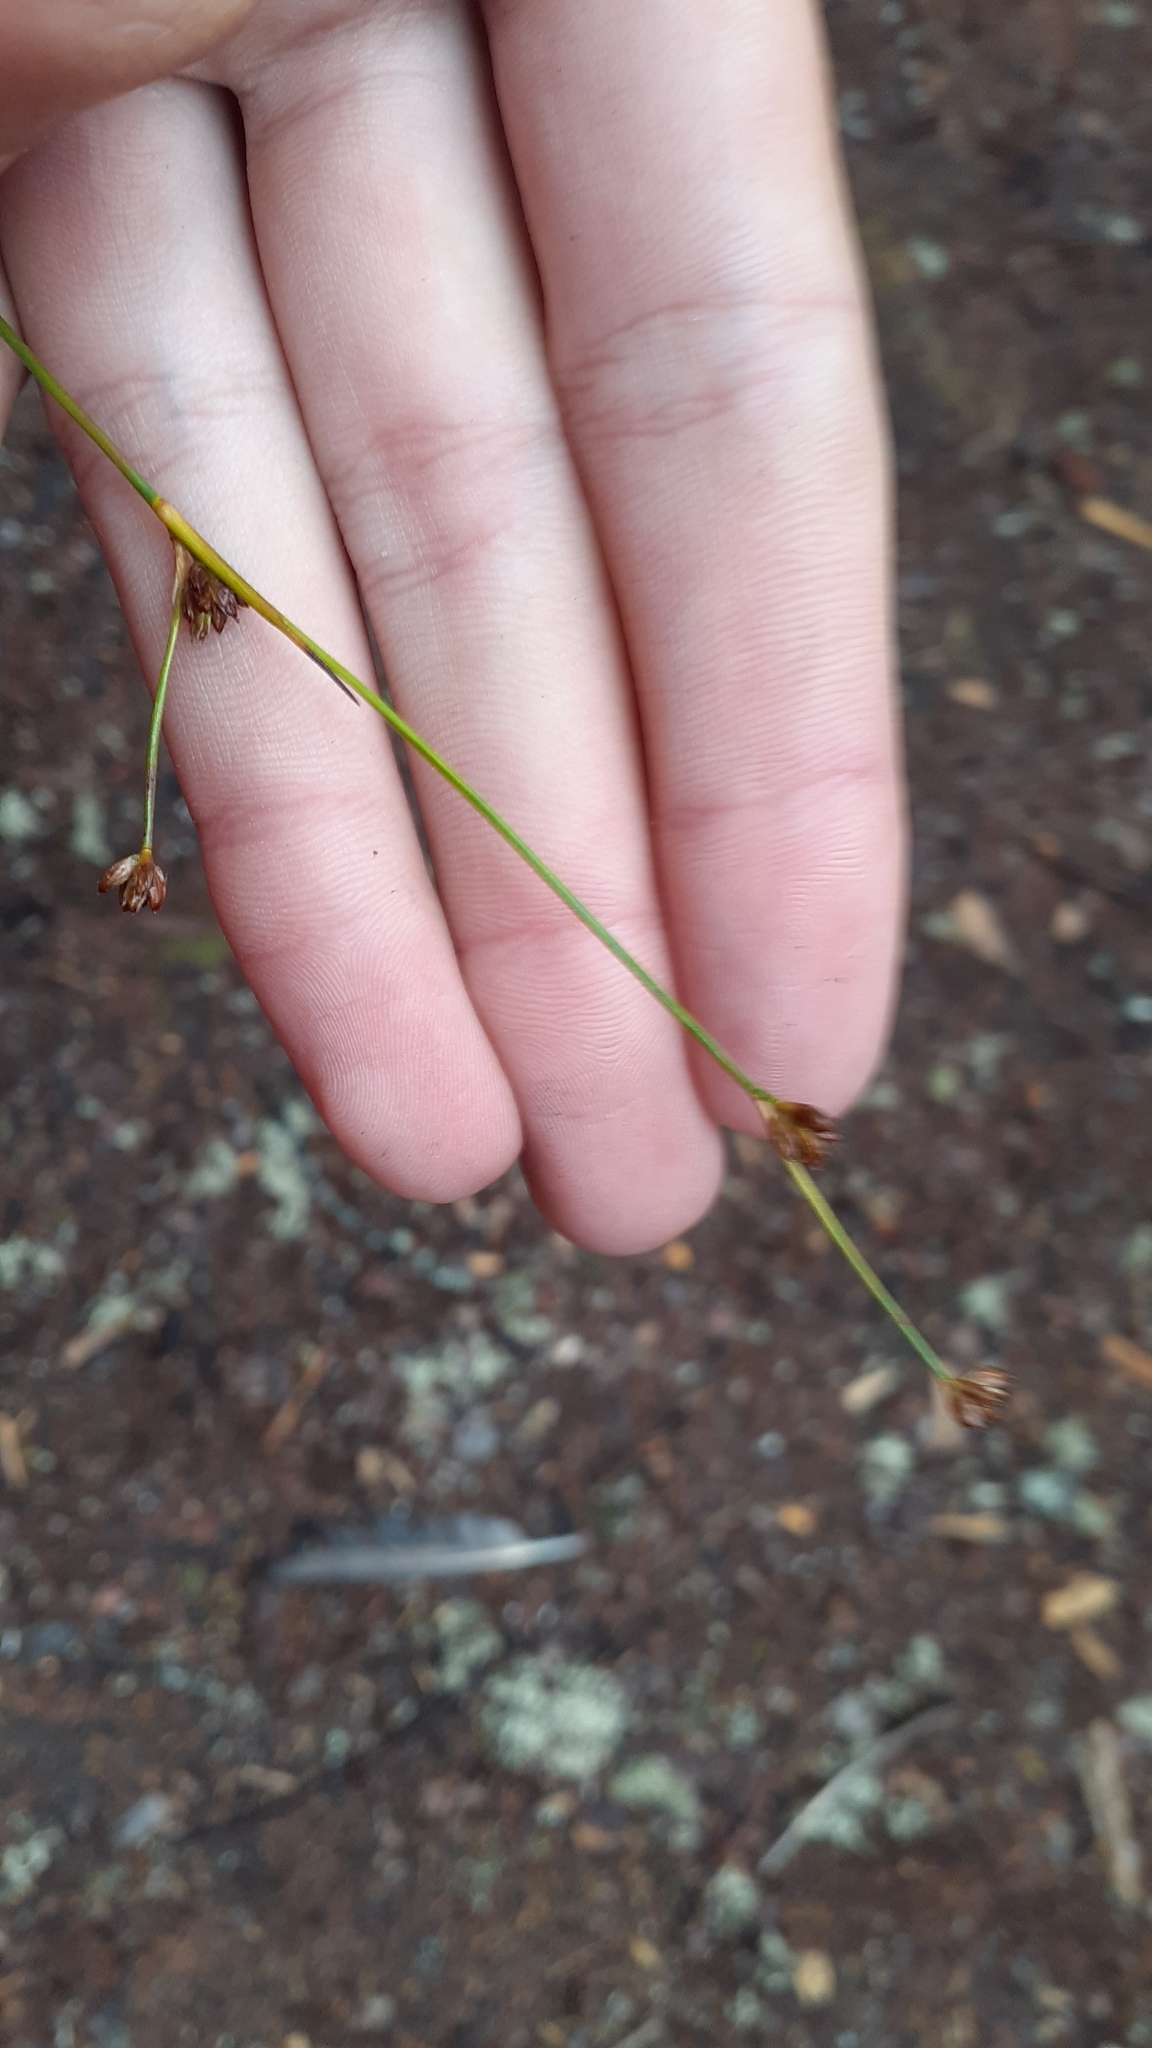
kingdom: Plantae
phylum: Tracheophyta
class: Liliopsida
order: Poales
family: Juncaceae
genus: Juncus
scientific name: Juncus alpinoarticulatus
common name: Alpine rush
